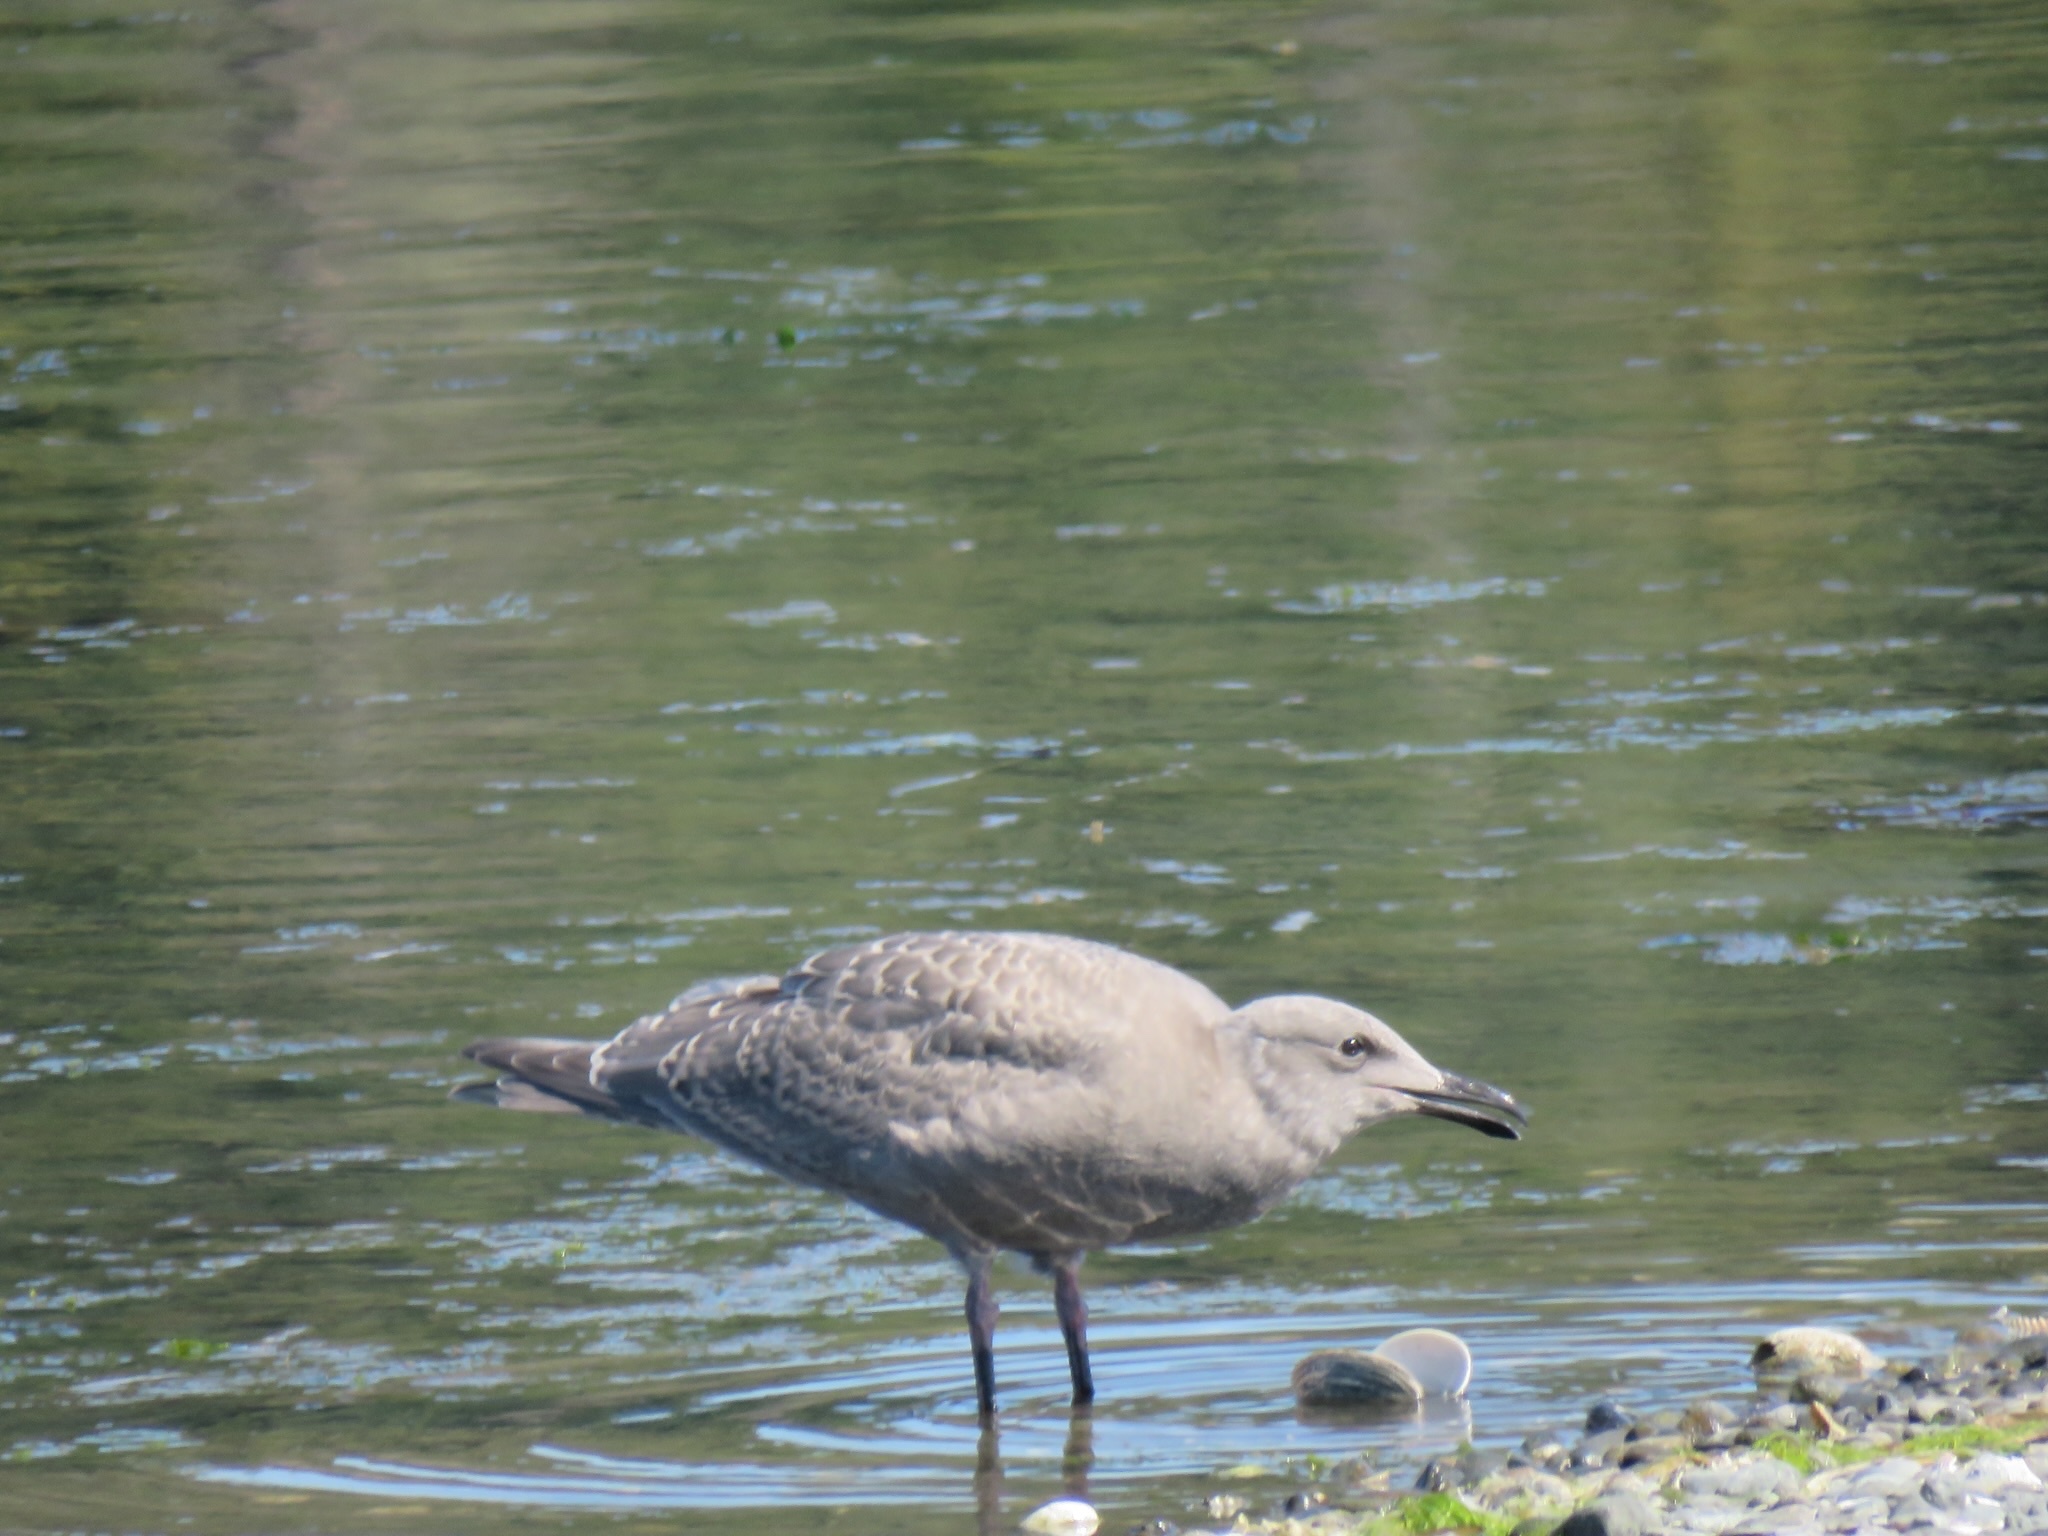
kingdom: Animalia
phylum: Chordata
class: Aves
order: Charadriiformes
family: Laridae
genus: Larus
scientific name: Larus glaucescens
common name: Glaucous-winged gull
